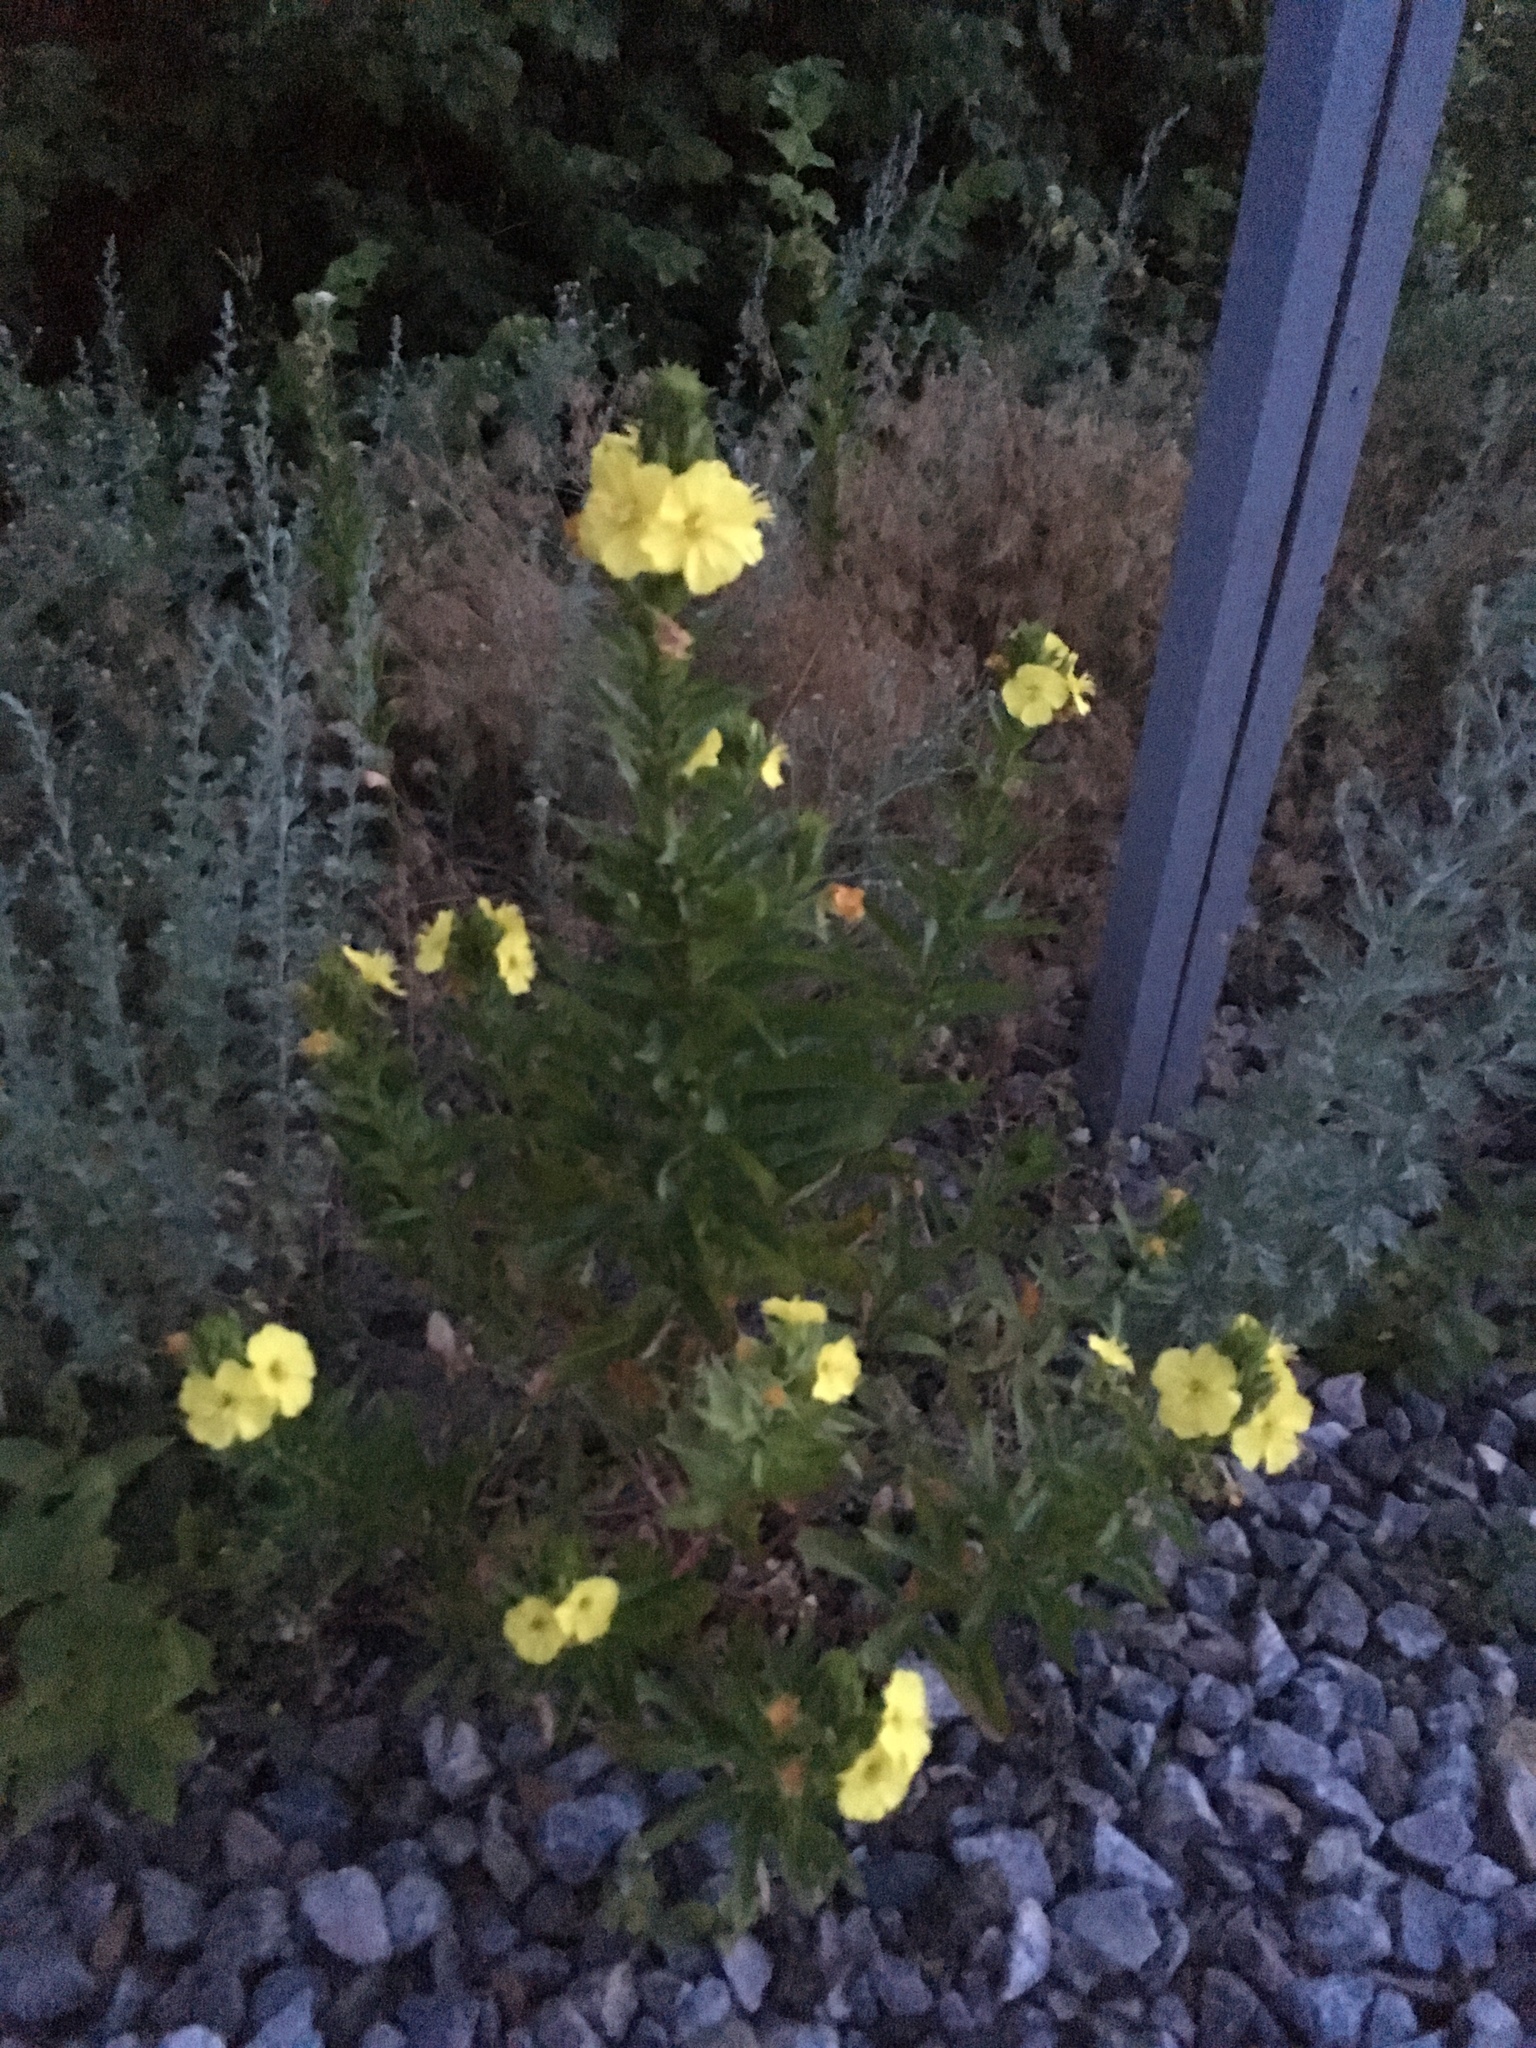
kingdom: Plantae
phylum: Tracheophyta
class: Magnoliopsida
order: Myrtales
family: Onagraceae
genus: Oenothera
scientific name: Oenothera biennis
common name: Common evening-primrose
